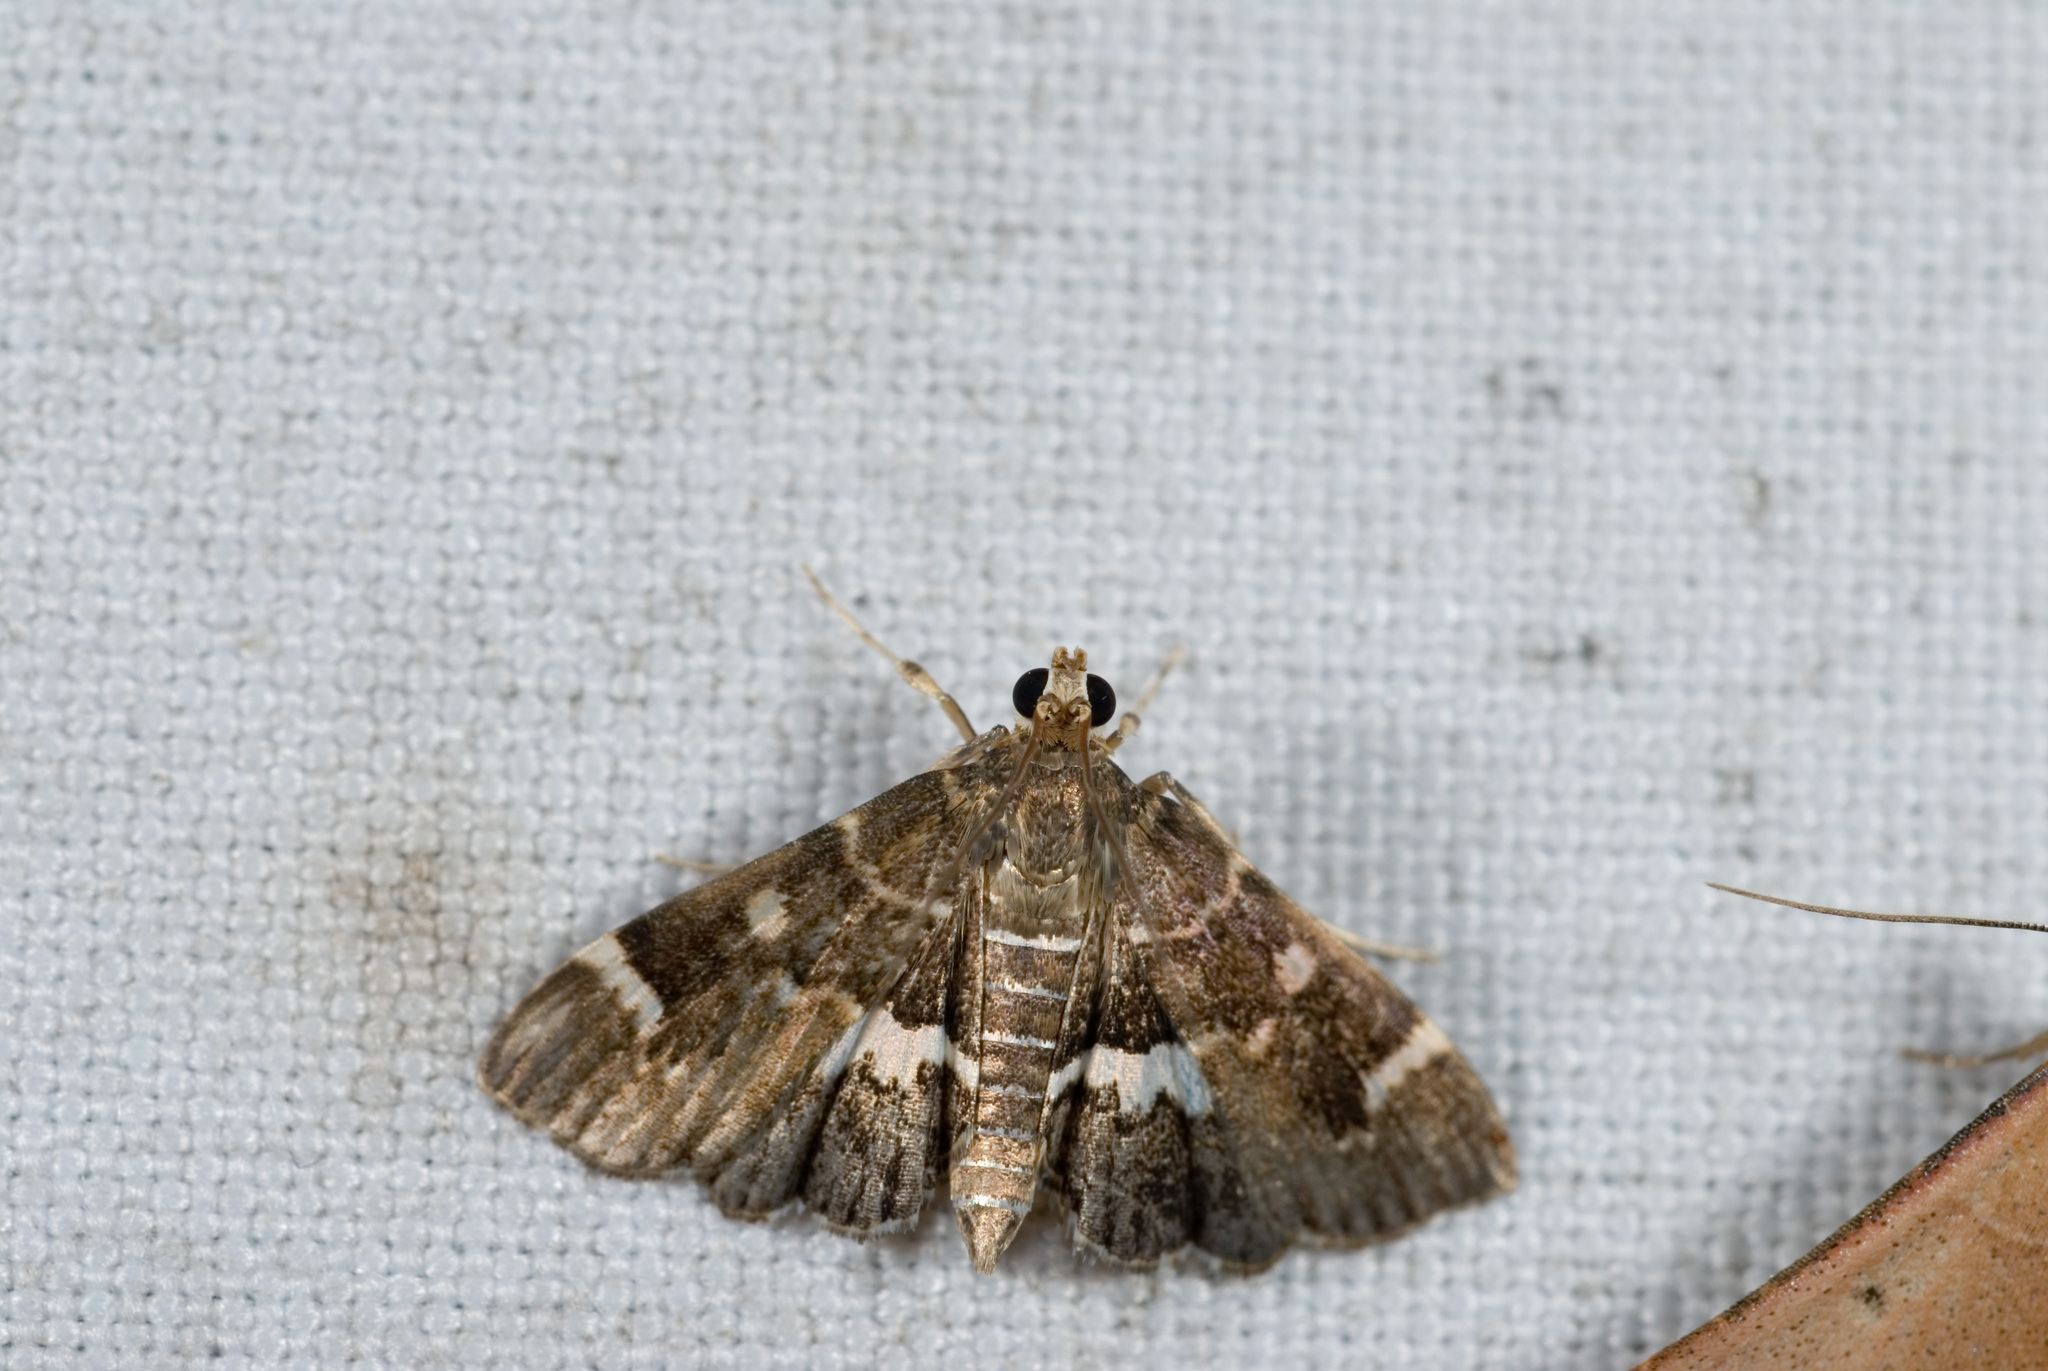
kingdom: Animalia
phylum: Arthropoda
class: Insecta
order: Lepidoptera
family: Crambidae
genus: Hymenia
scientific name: Hymenia perspectalis
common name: Spotted beet webworm
